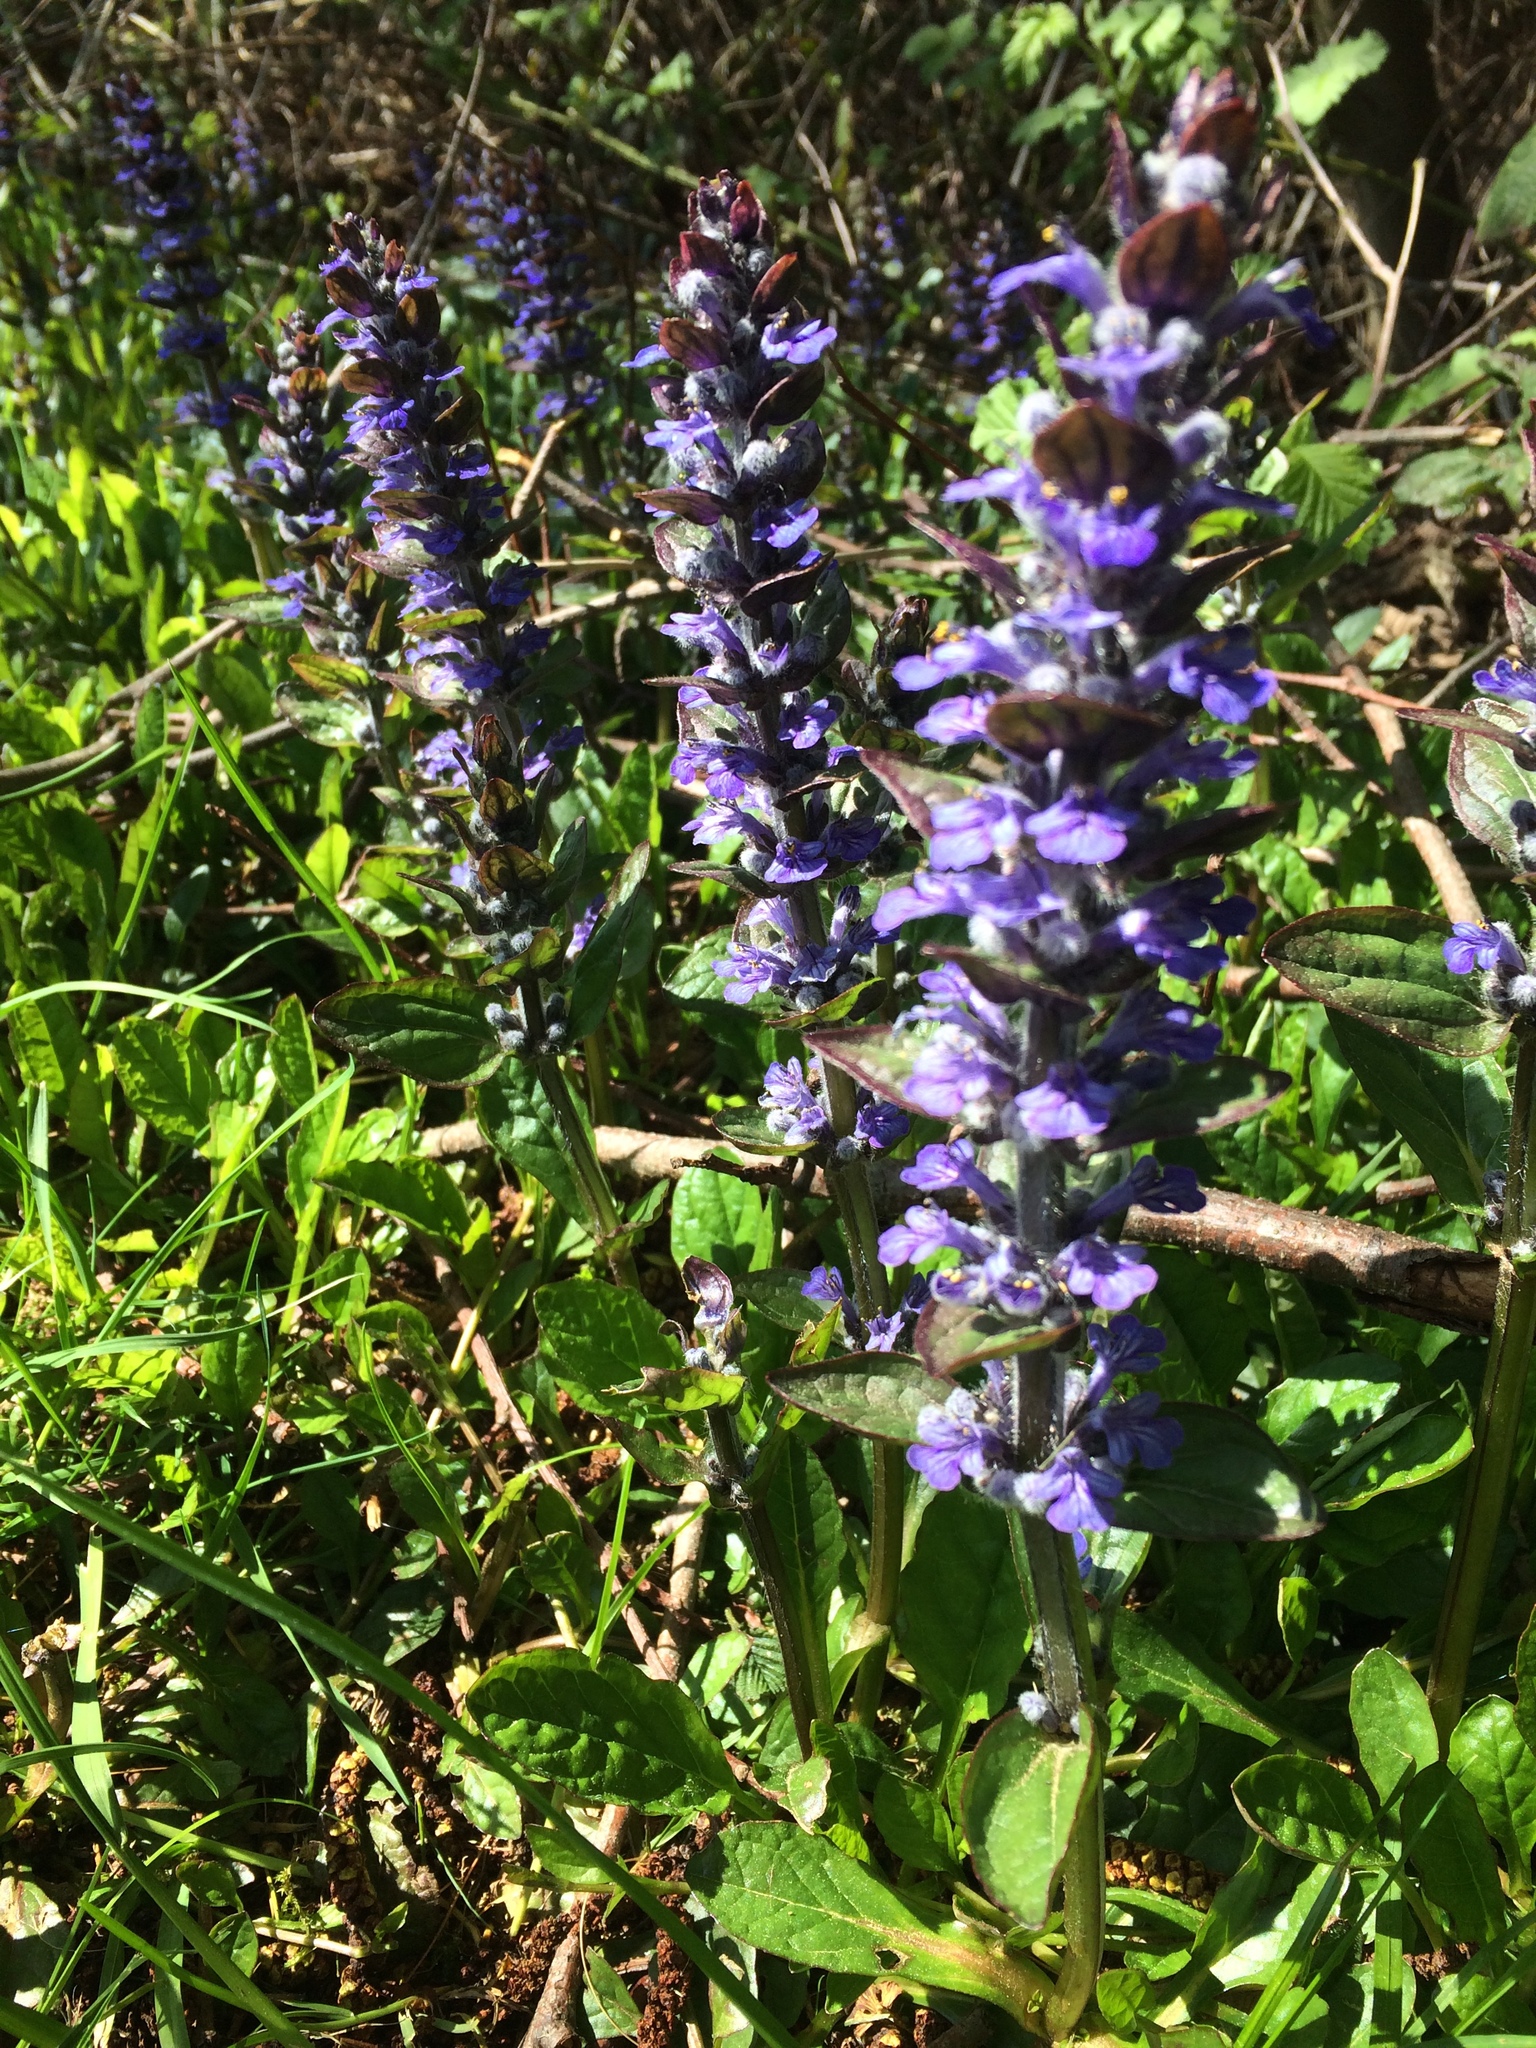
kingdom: Plantae
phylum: Tracheophyta
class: Magnoliopsida
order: Lamiales
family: Lamiaceae
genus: Ajuga
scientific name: Ajuga reptans
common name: Bugle
